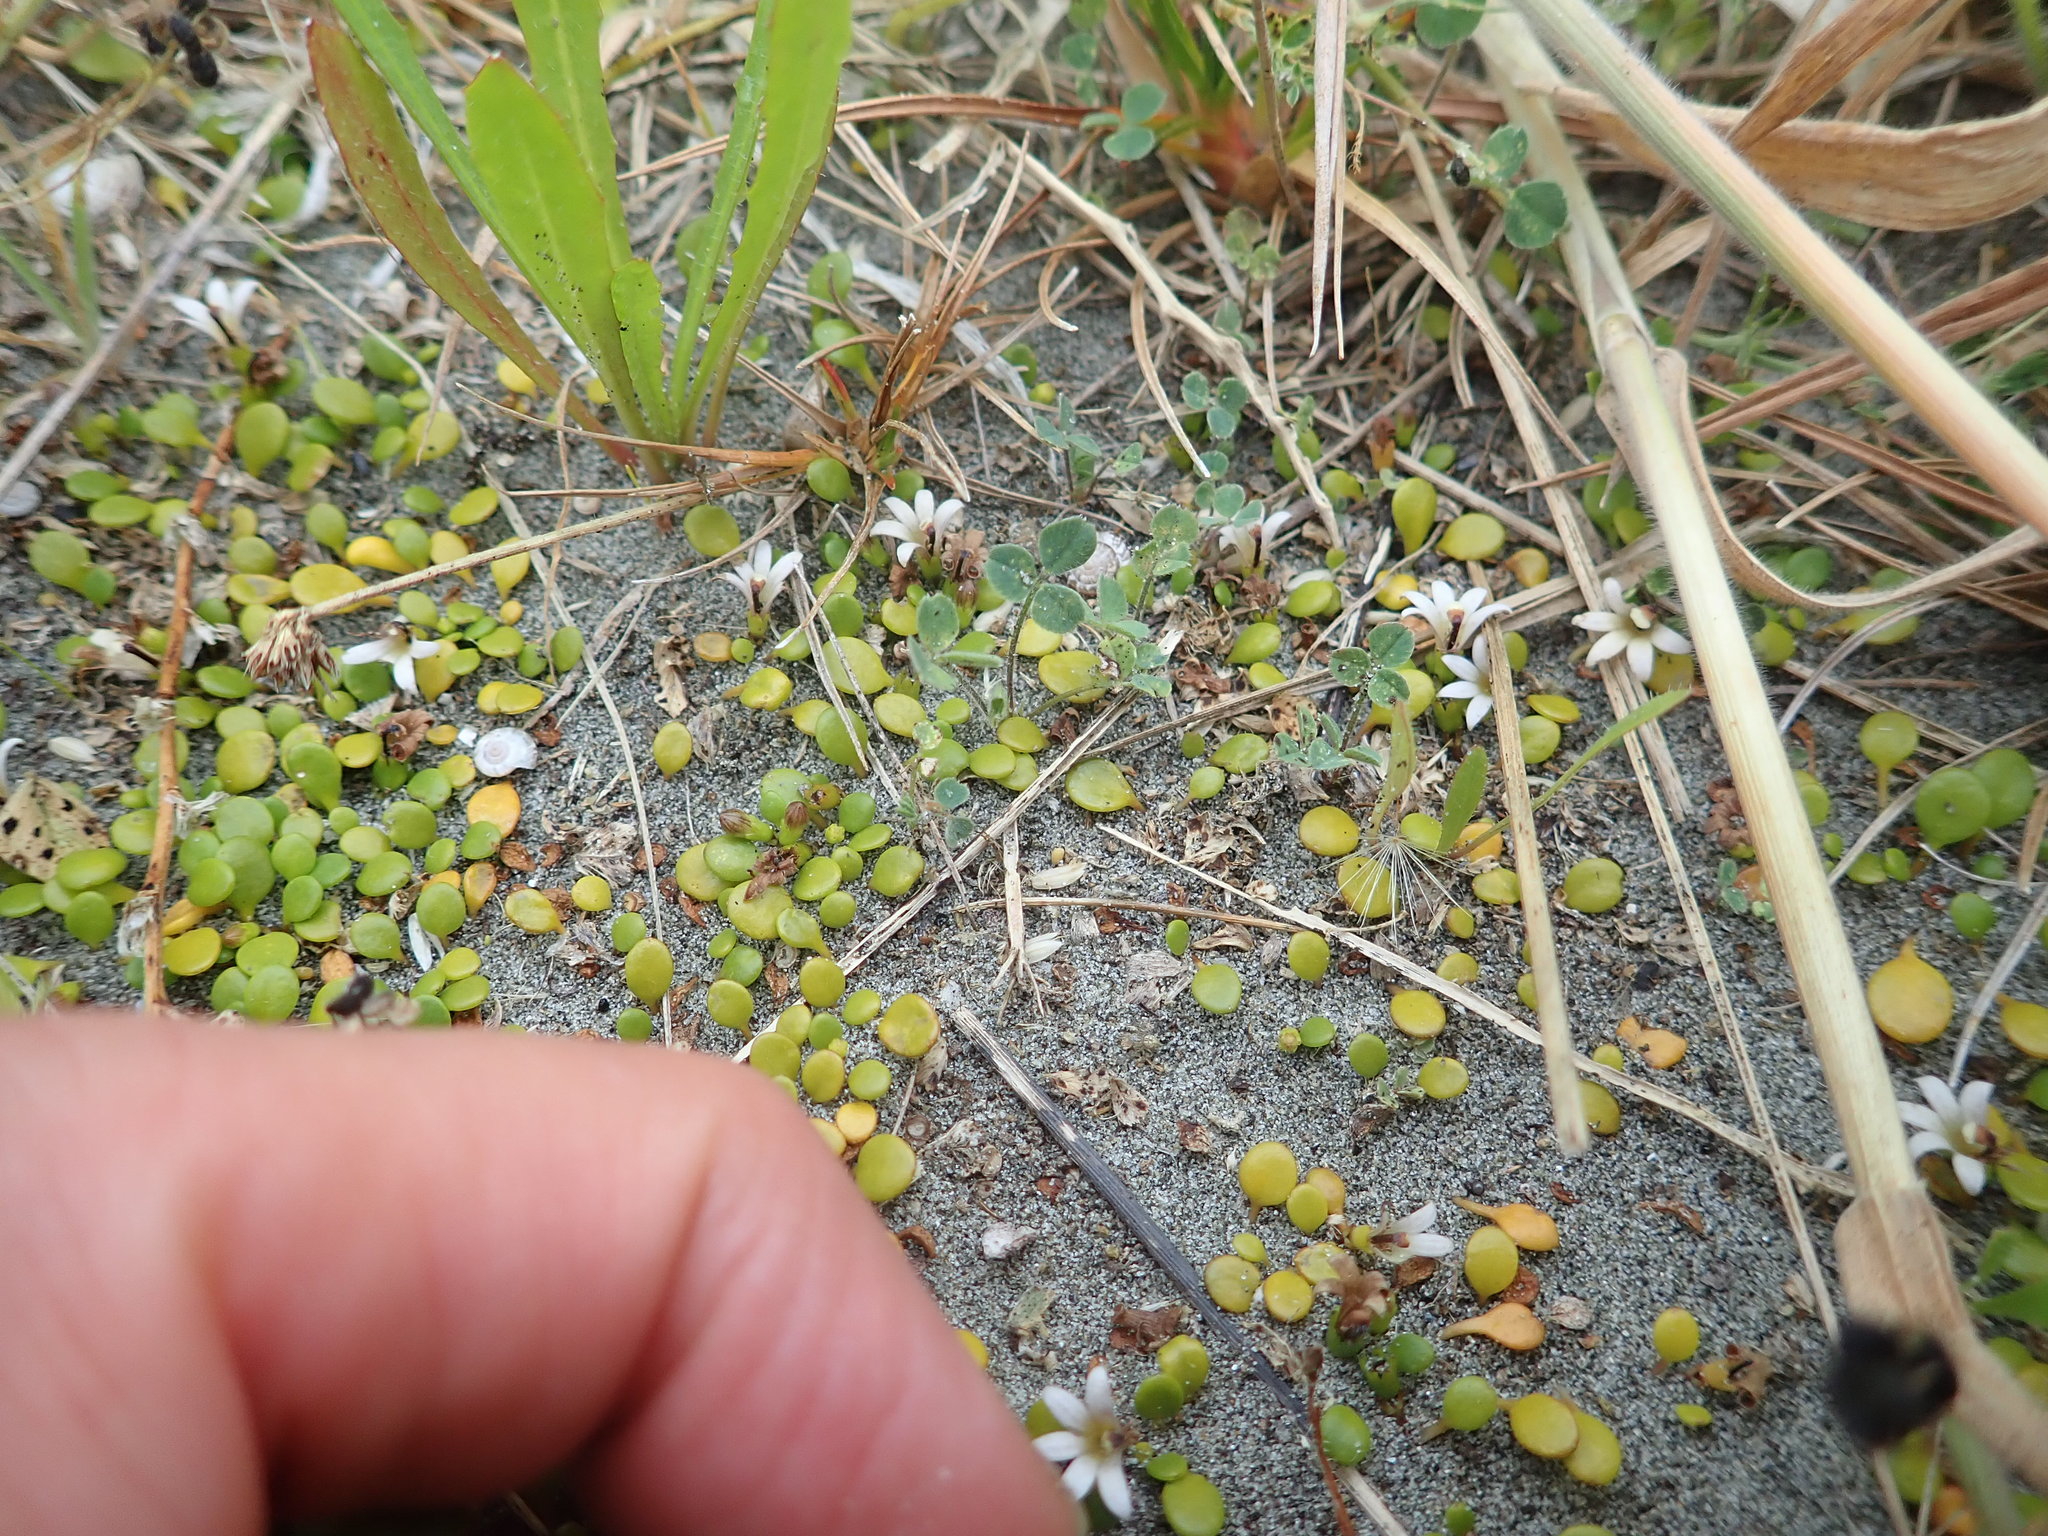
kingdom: Plantae
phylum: Tracheophyta
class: Magnoliopsida
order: Asterales
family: Goodeniaceae
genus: Goodenia
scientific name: Goodenia heenanii
